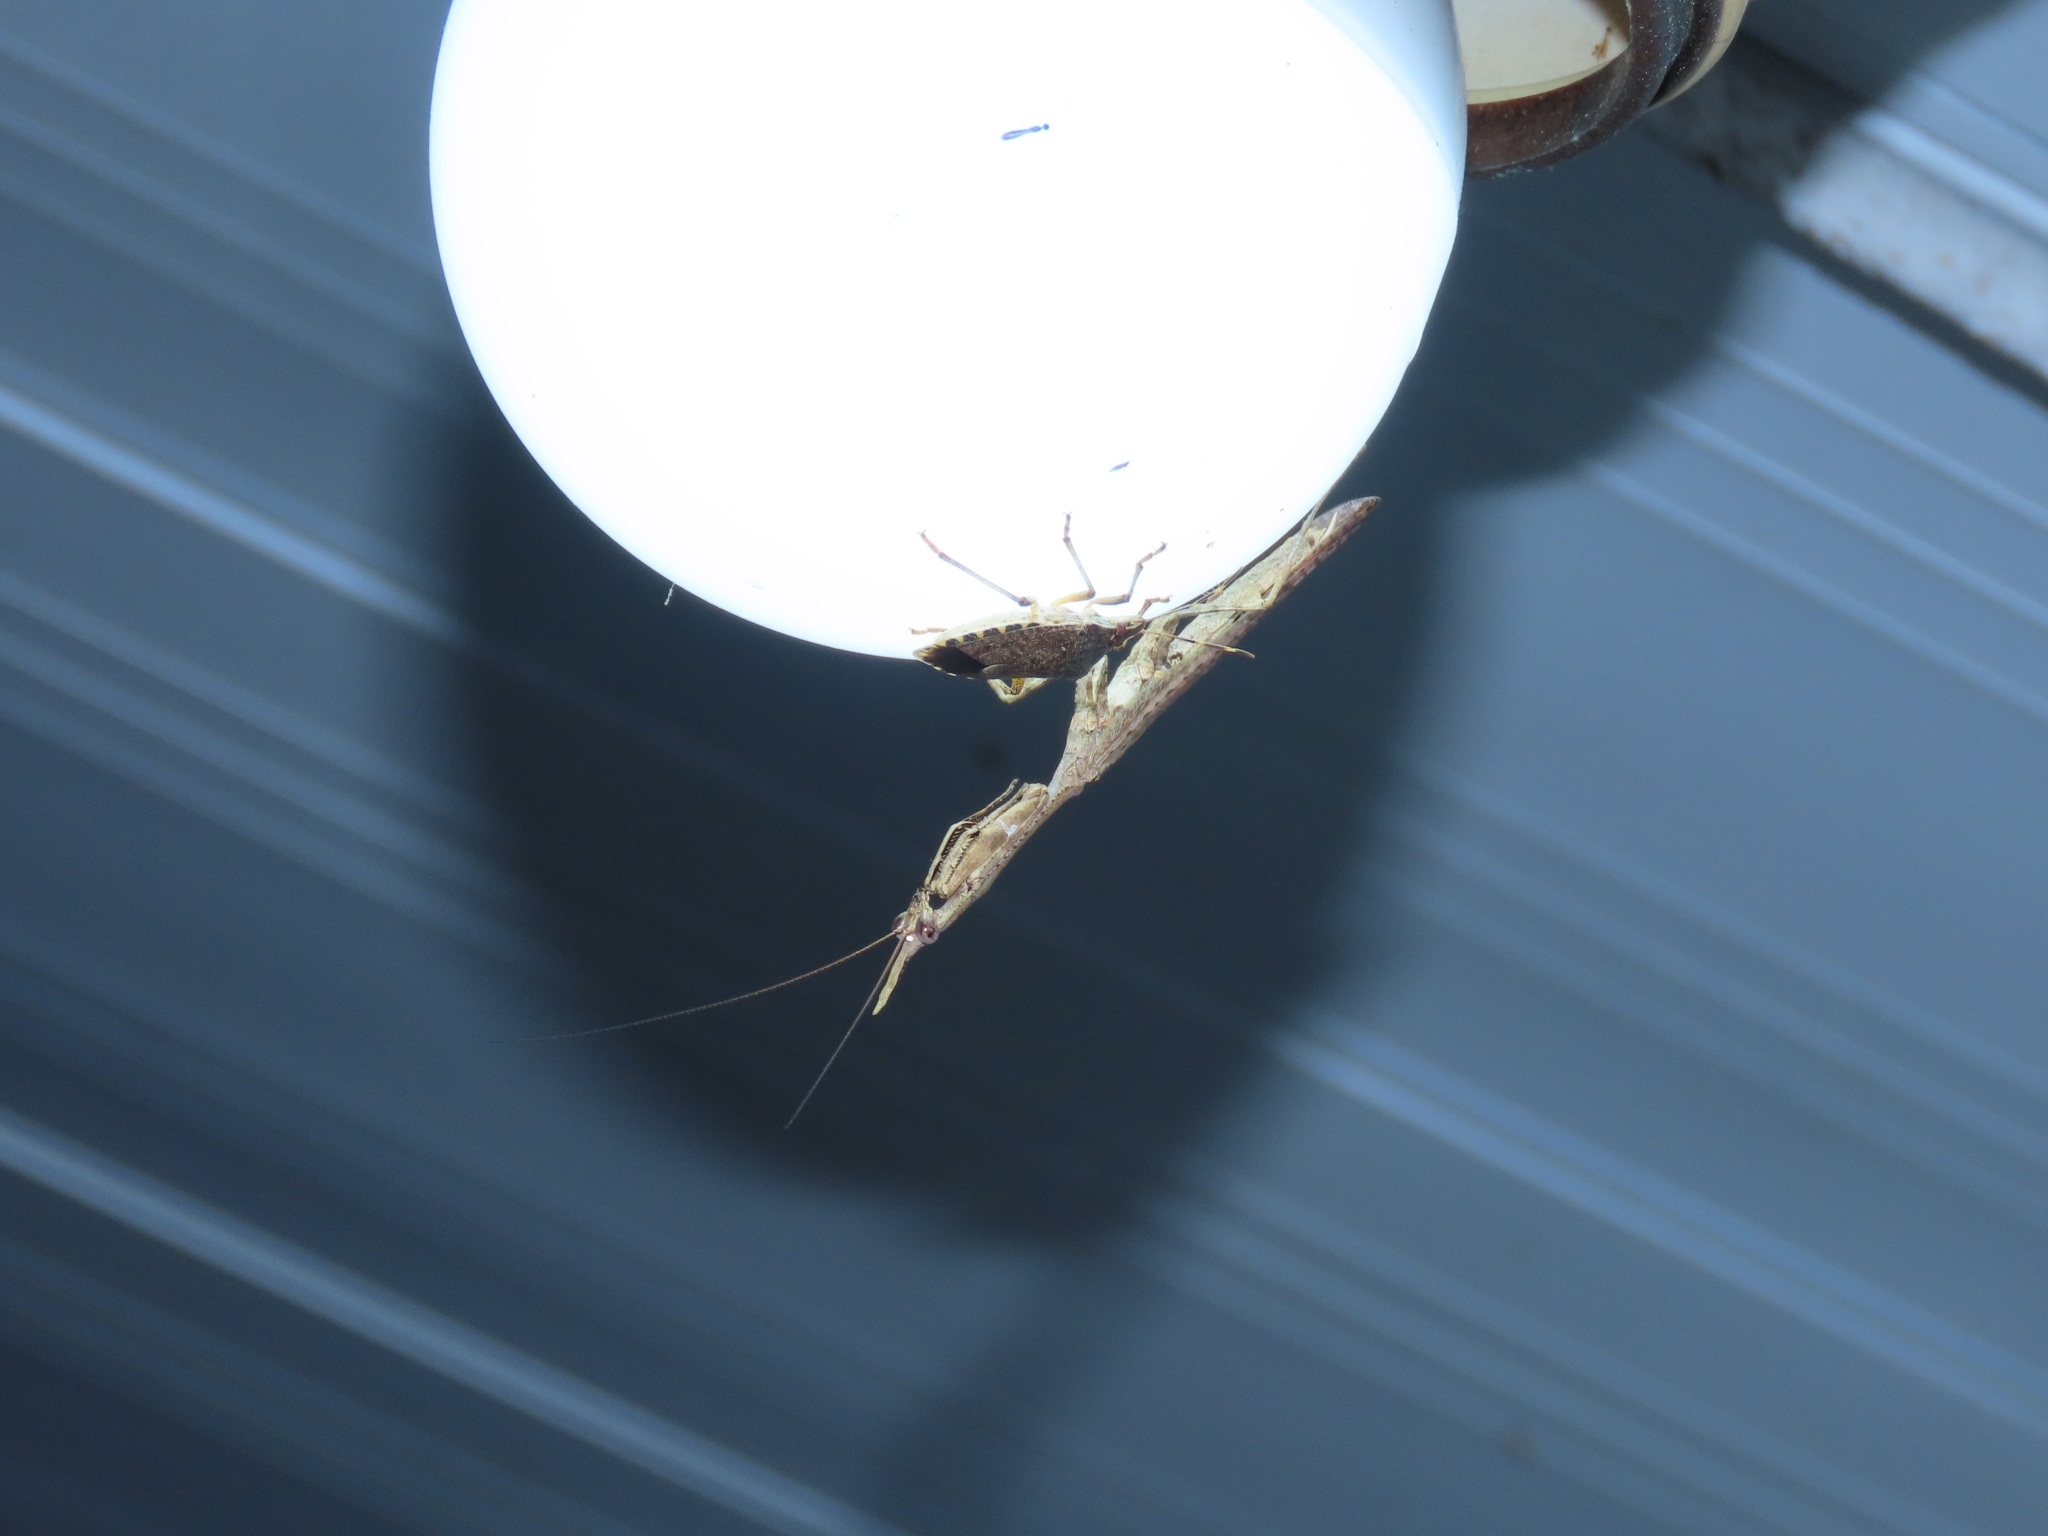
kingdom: Animalia
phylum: Arthropoda
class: Insecta
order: Mantodea
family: Hymenopodidae
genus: Phyllothelys
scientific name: Phyllothelys werneri
